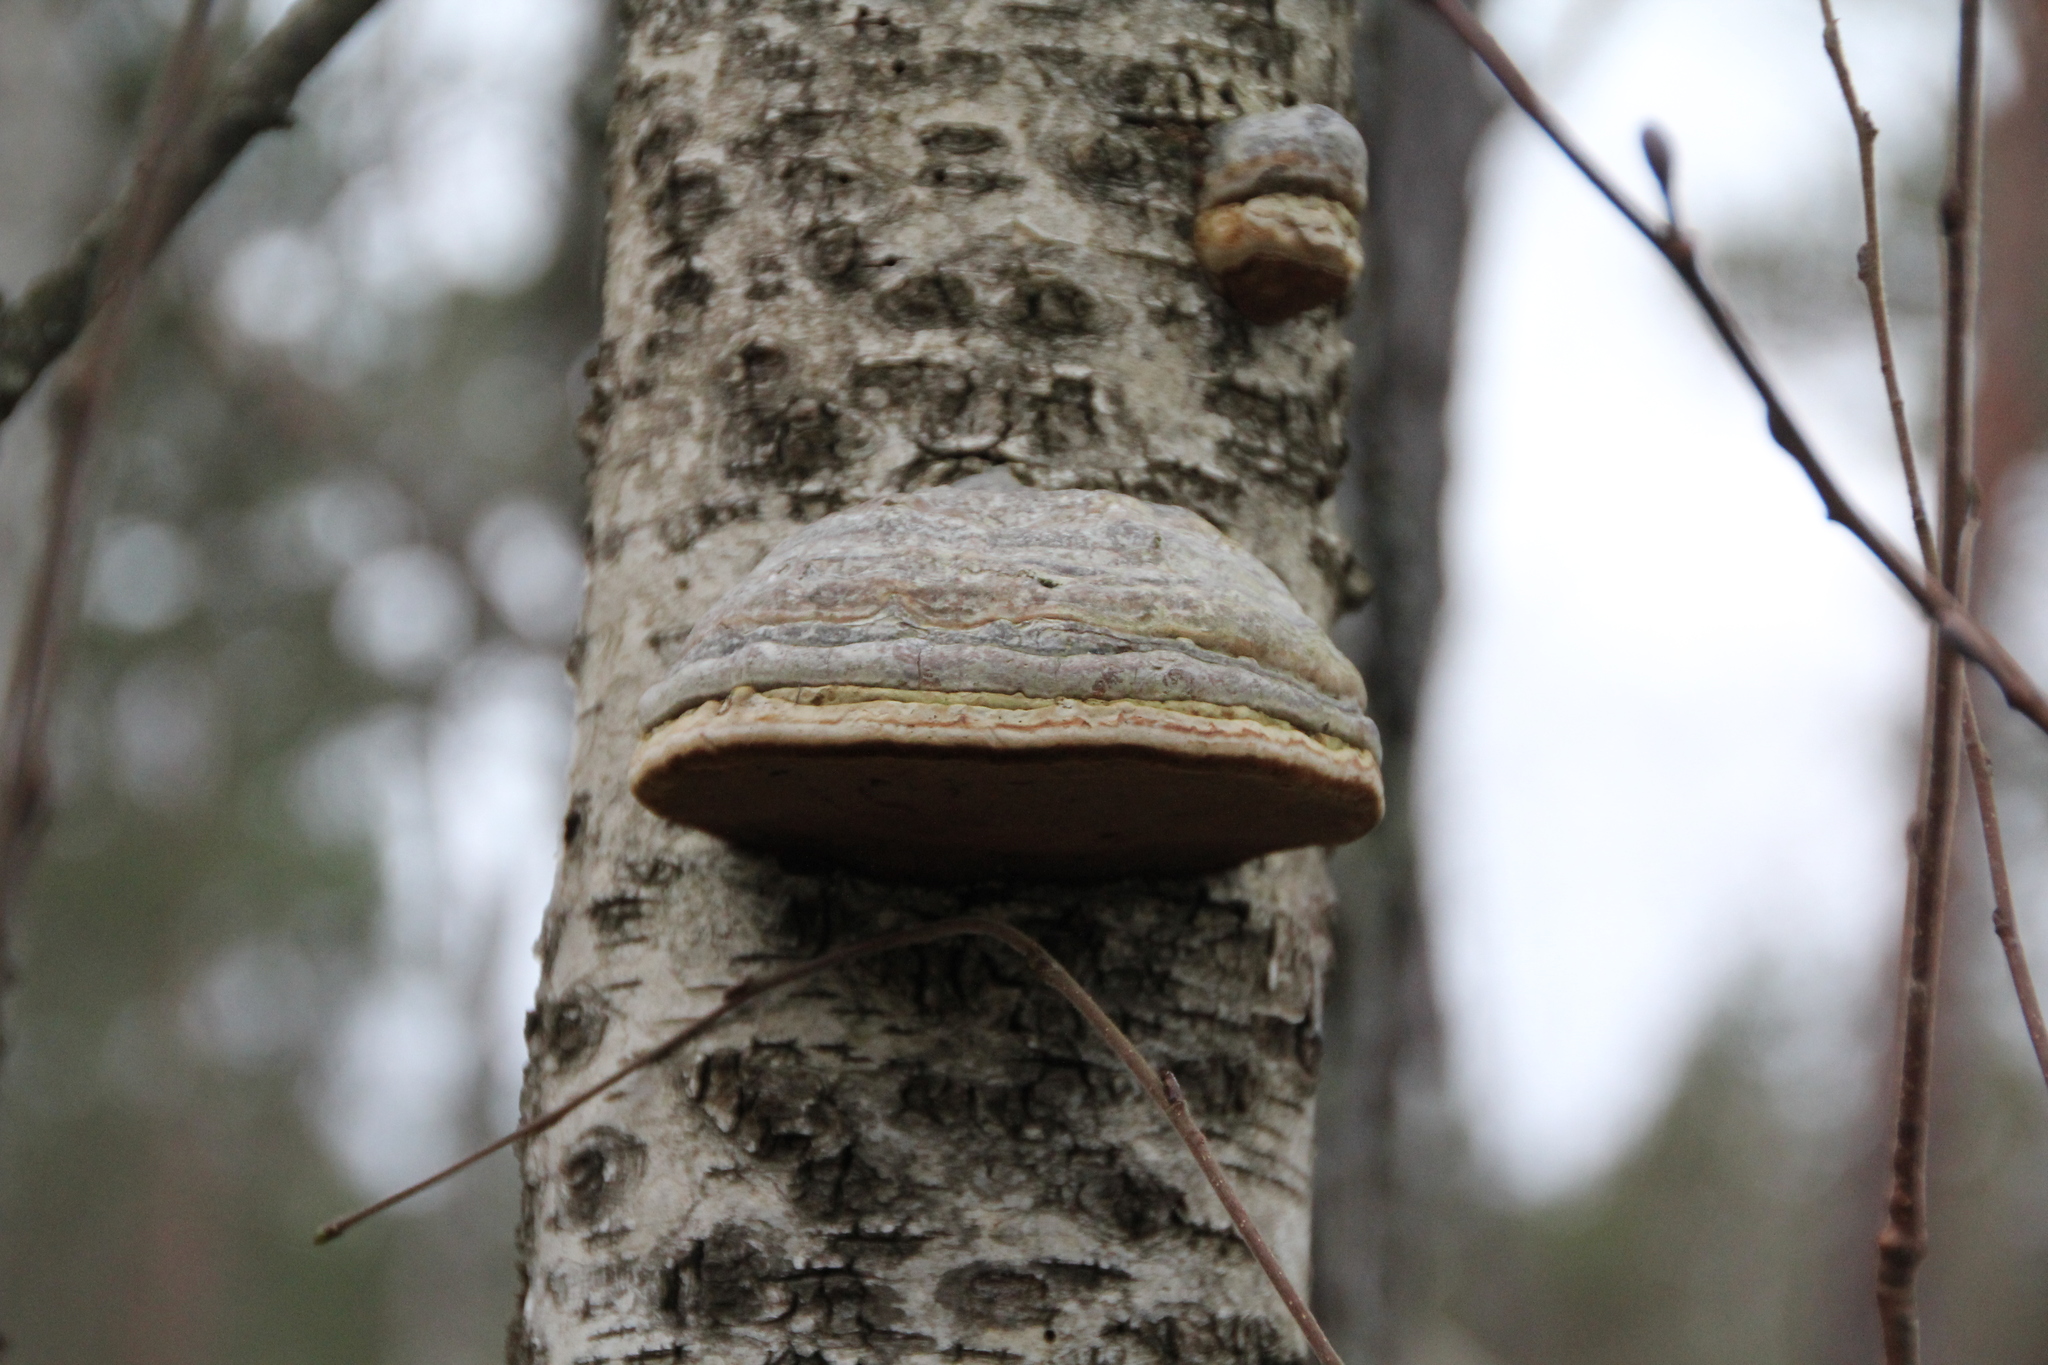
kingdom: Fungi
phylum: Basidiomycota
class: Agaricomycetes
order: Polyporales
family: Polyporaceae
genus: Fomes
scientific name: Fomes fomentarius
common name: Hoof fungus
